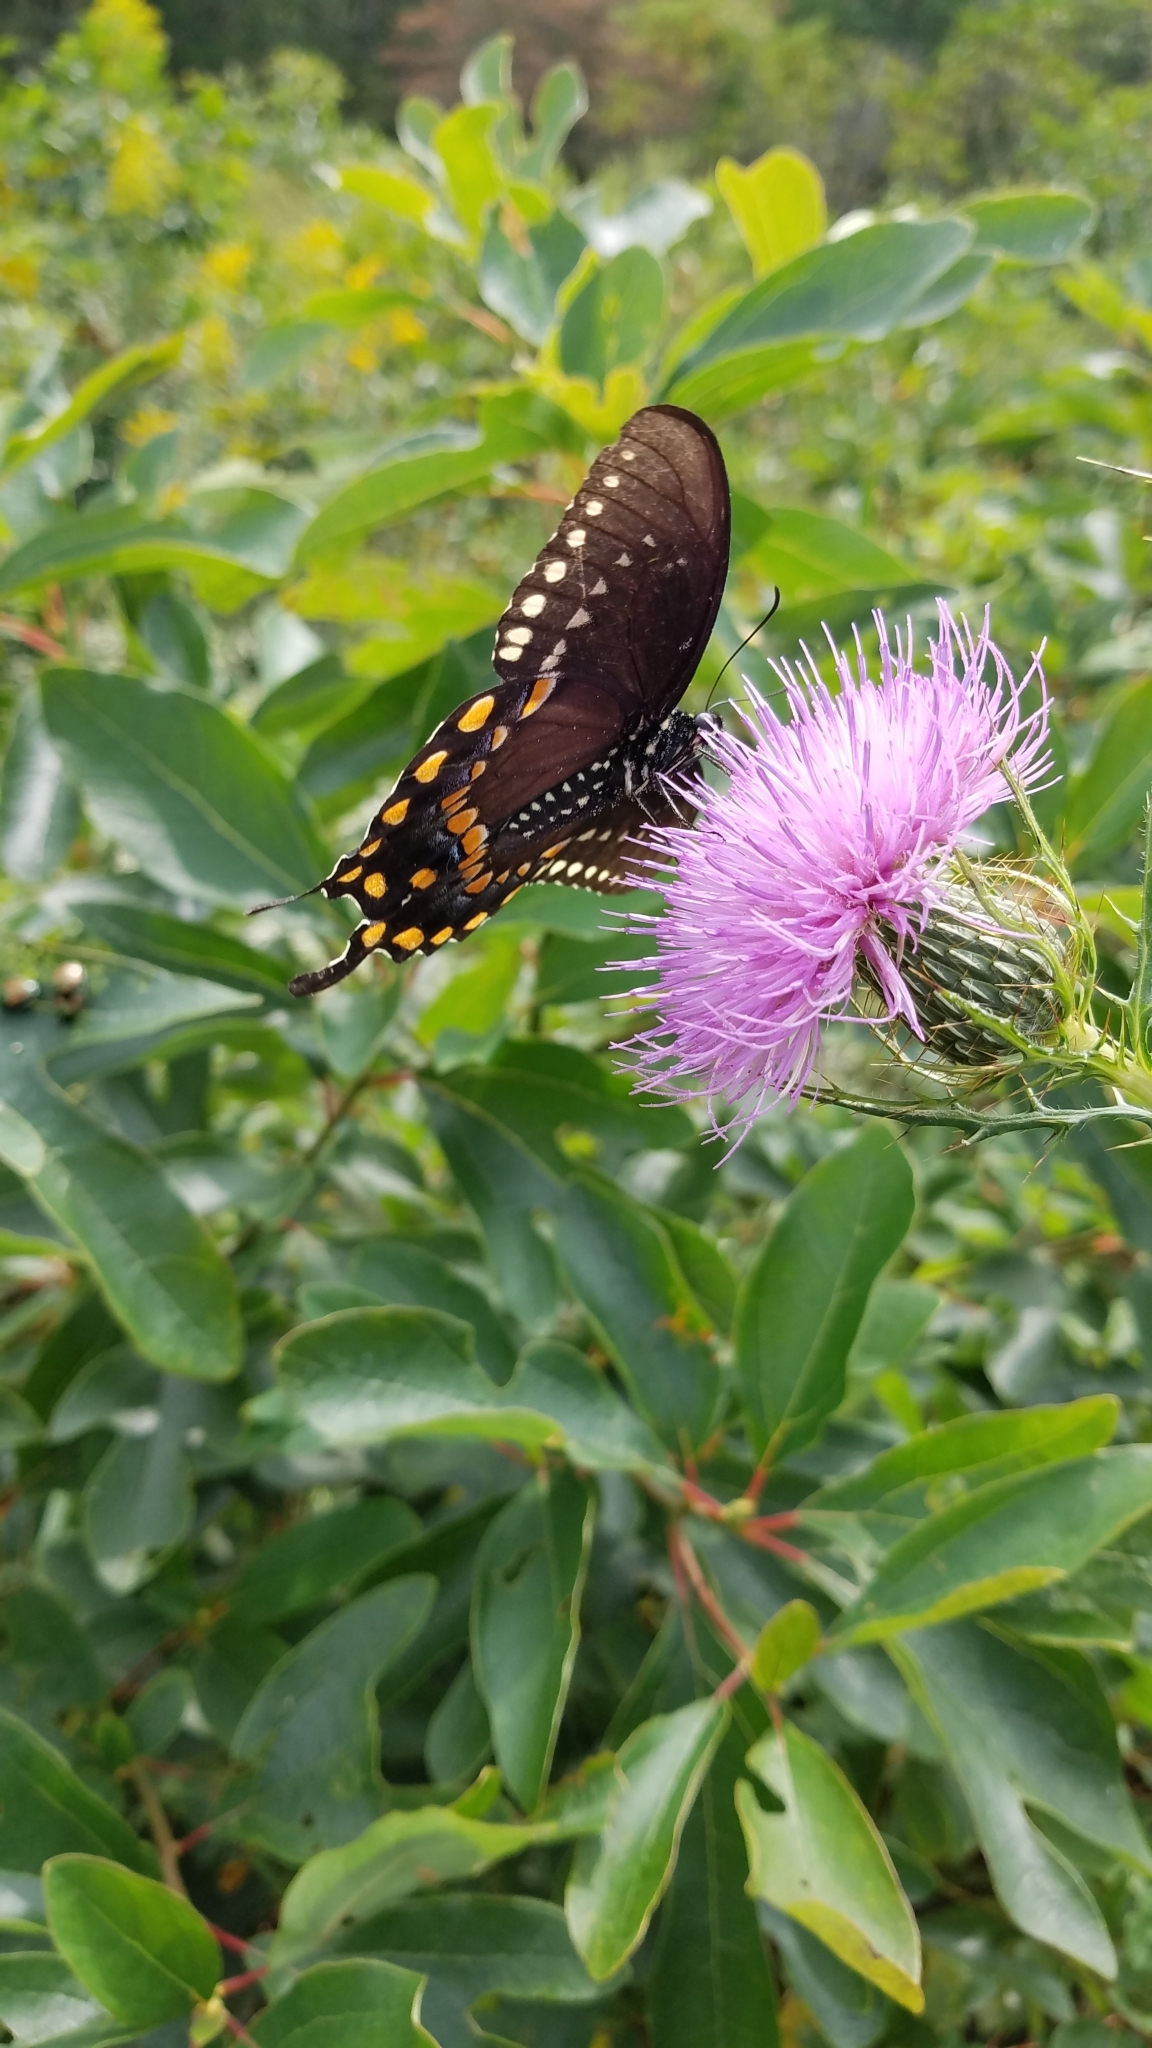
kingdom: Animalia
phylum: Arthropoda
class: Insecta
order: Lepidoptera
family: Papilionidae
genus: Papilio
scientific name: Papilio troilus
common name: Spicebush swallowtail
